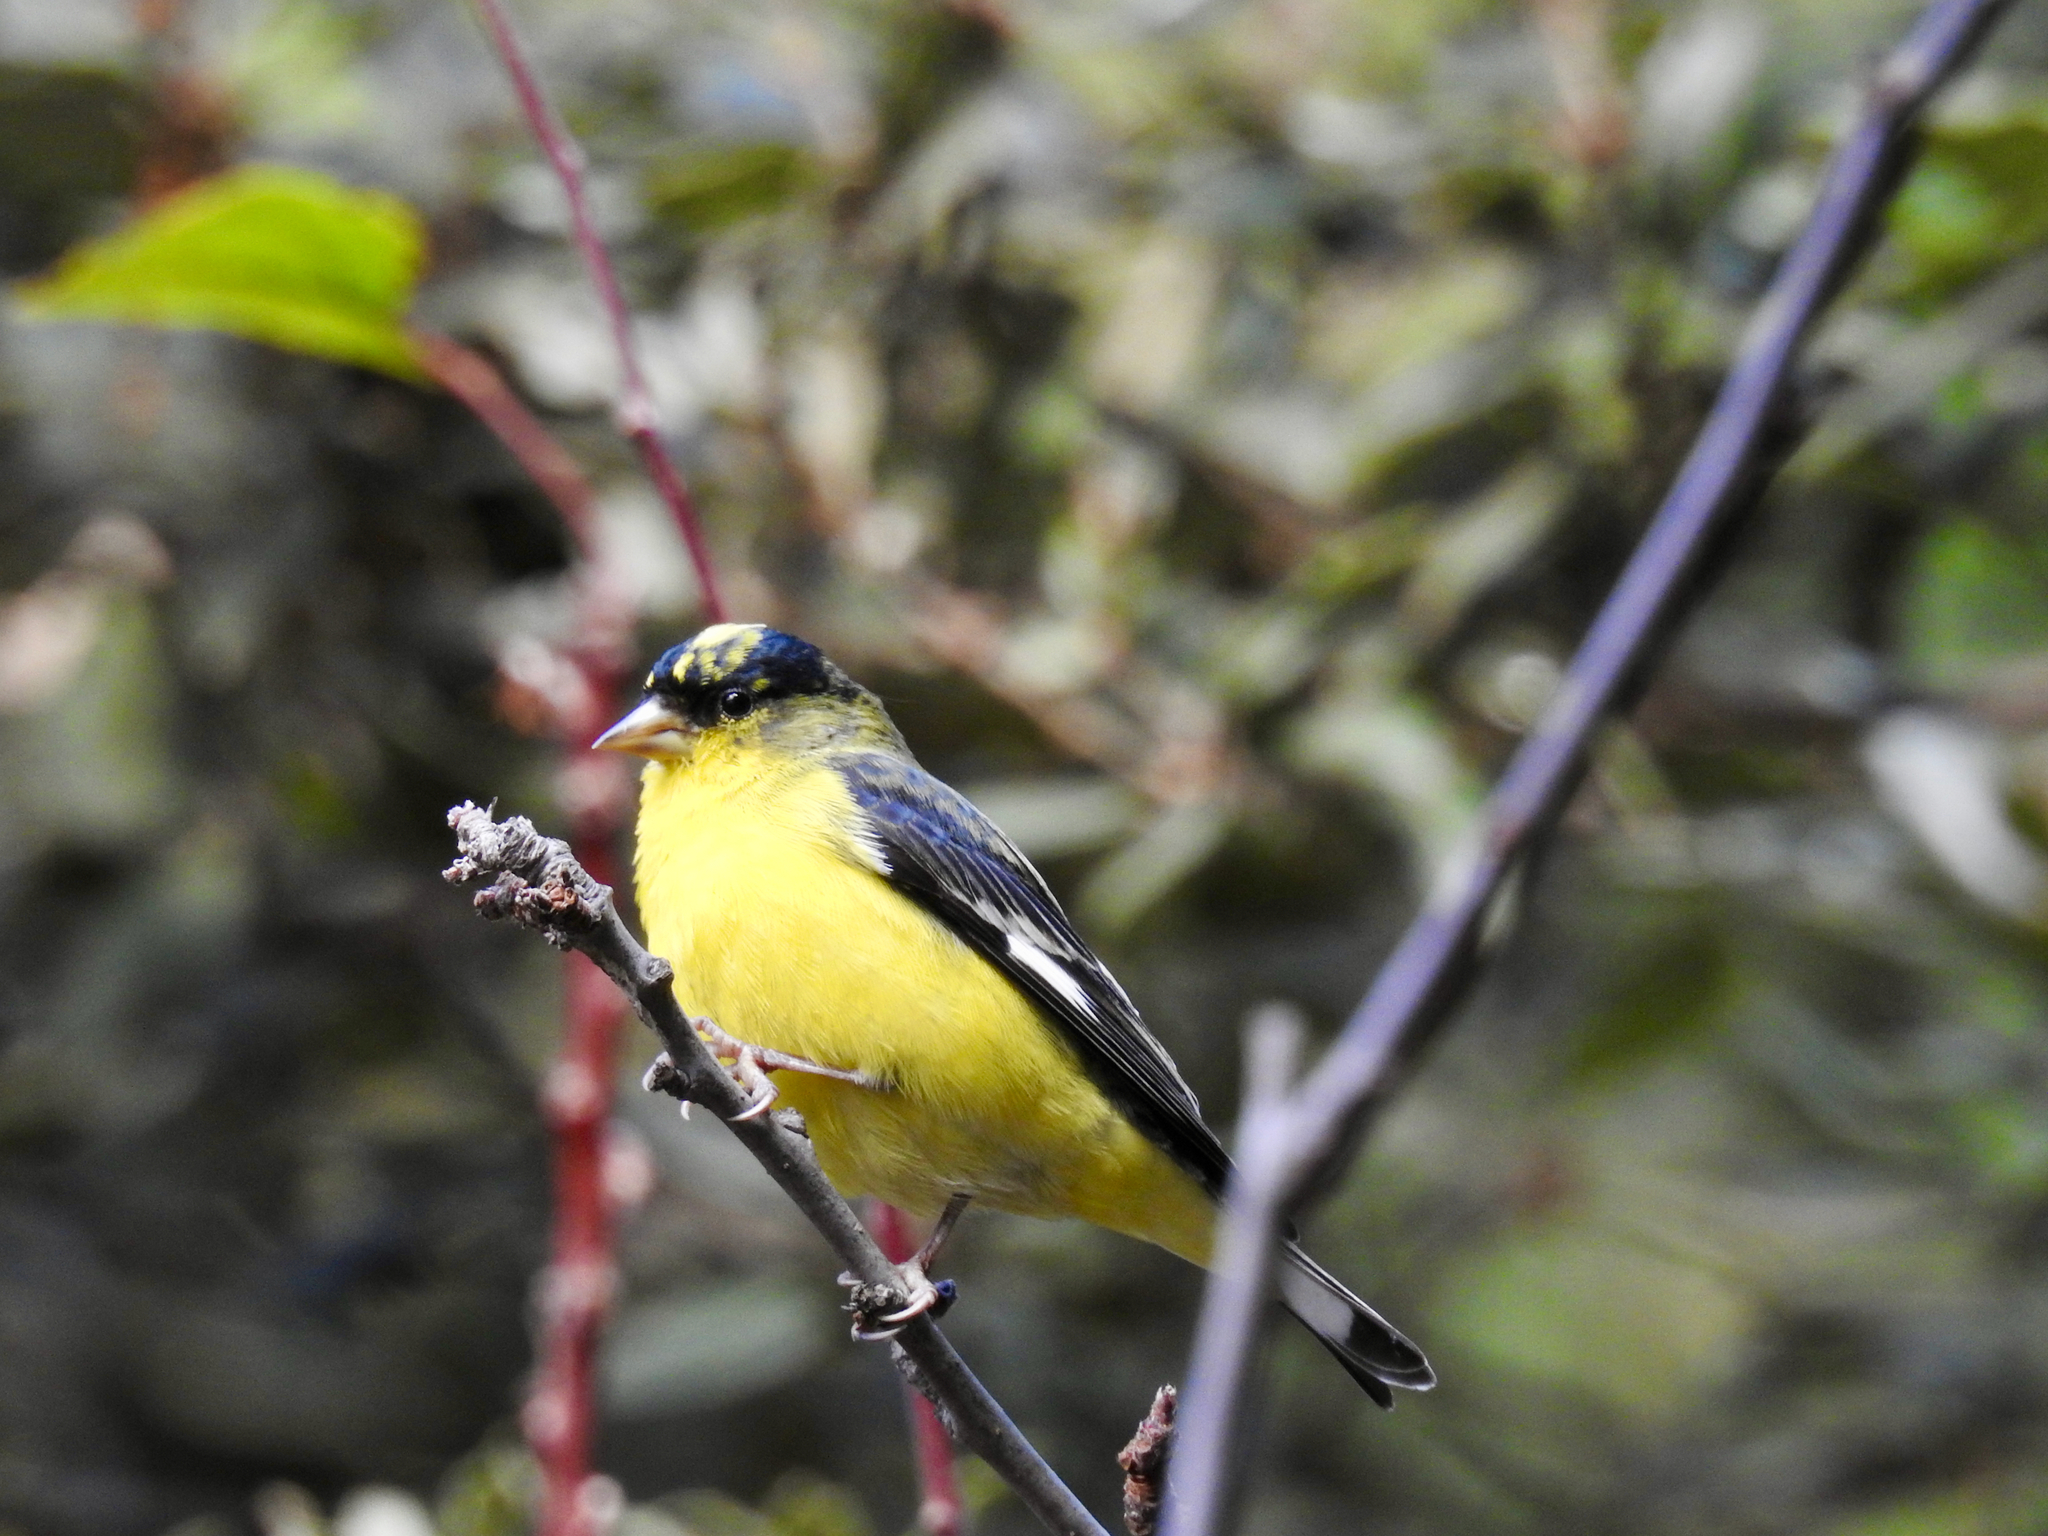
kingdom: Animalia
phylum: Chordata
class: Aves
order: Passeriformes
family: Fringillidae
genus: Spinus
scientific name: Spinus psaltria
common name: Lesser goldfinch
